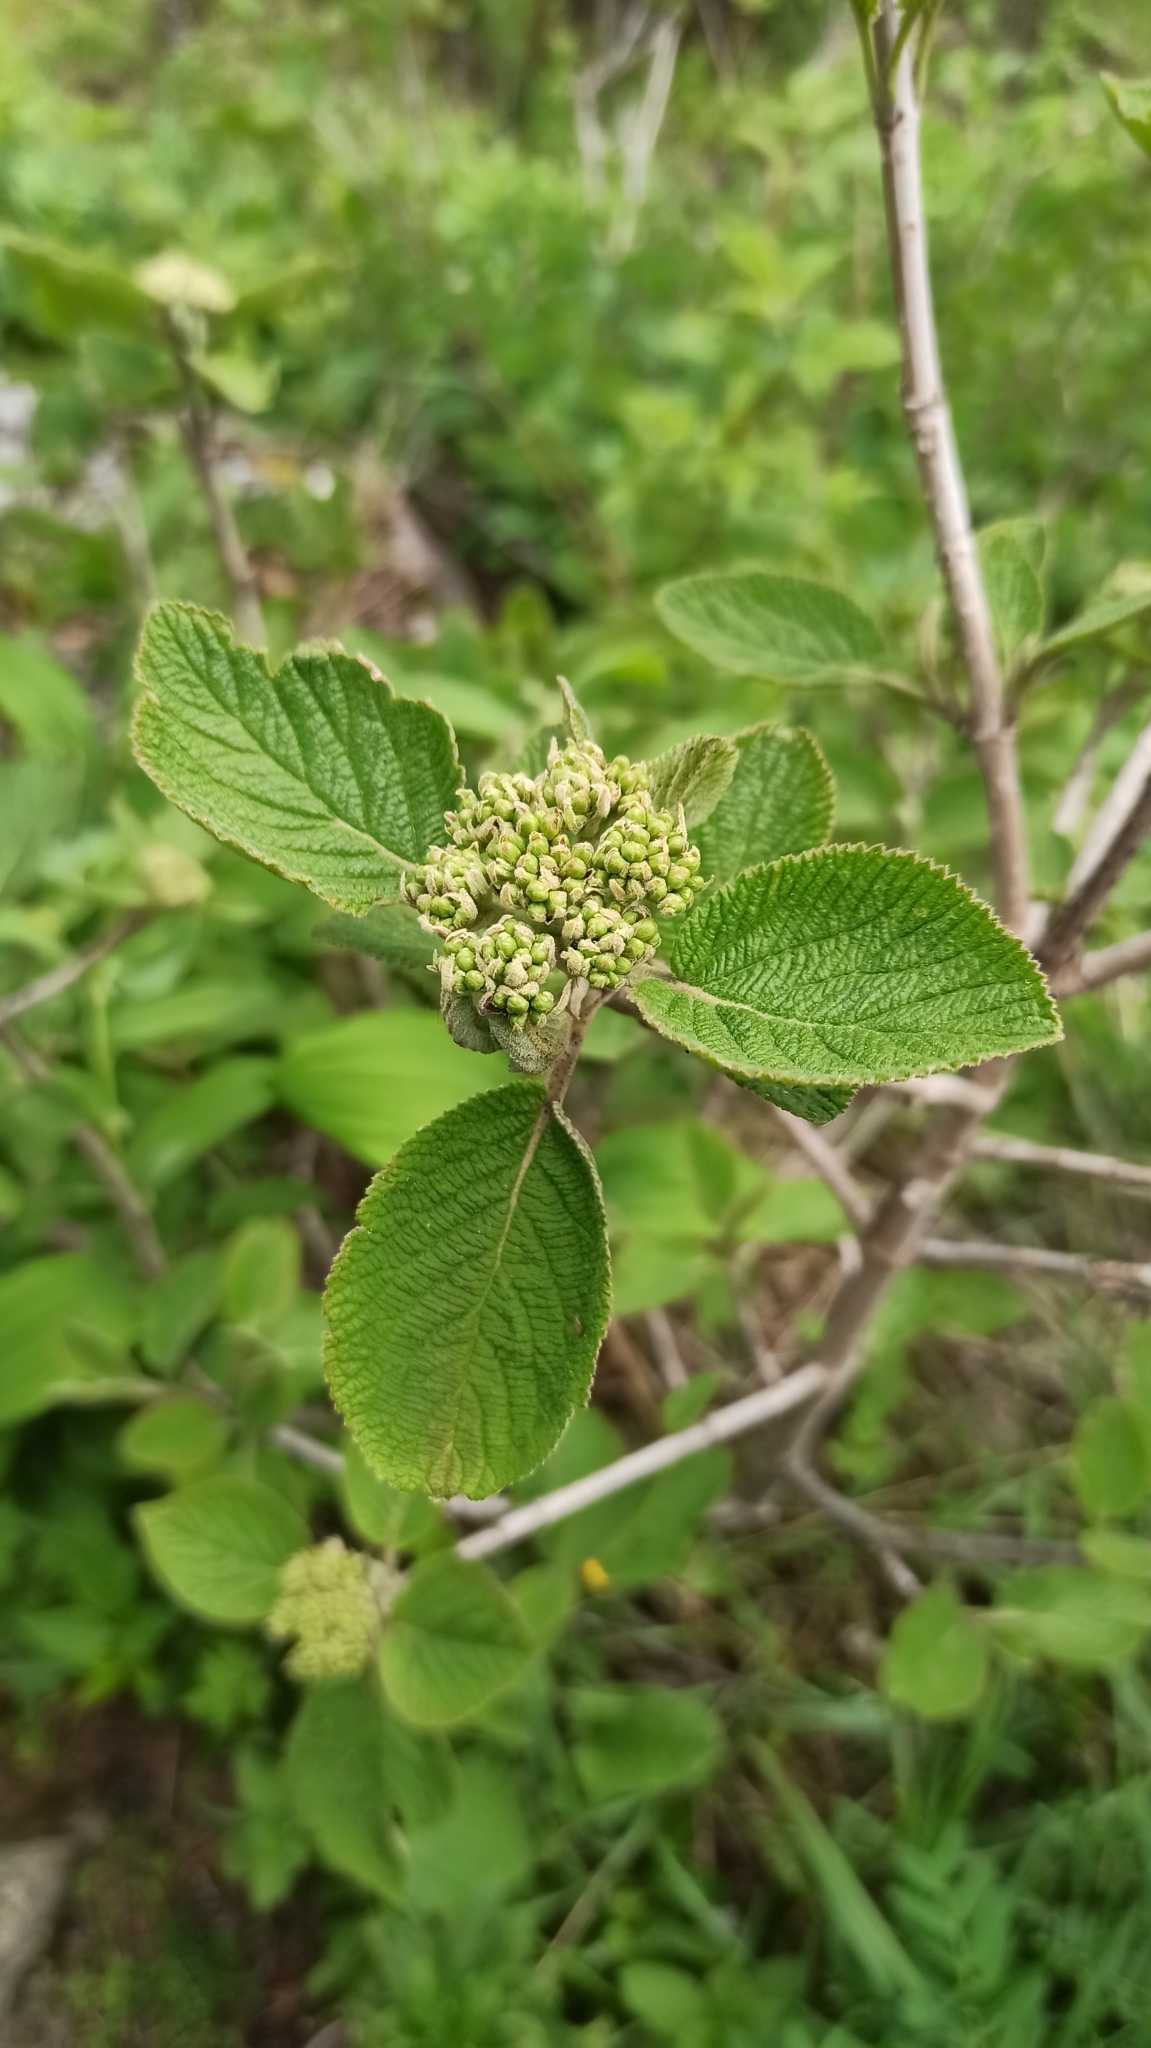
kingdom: Plantae
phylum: Tracheophyta
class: Magnoliopsida
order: Dipsacales
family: Viburnaceae
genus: Viburnum
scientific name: Viburnum lantana
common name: Wayfaring tree
